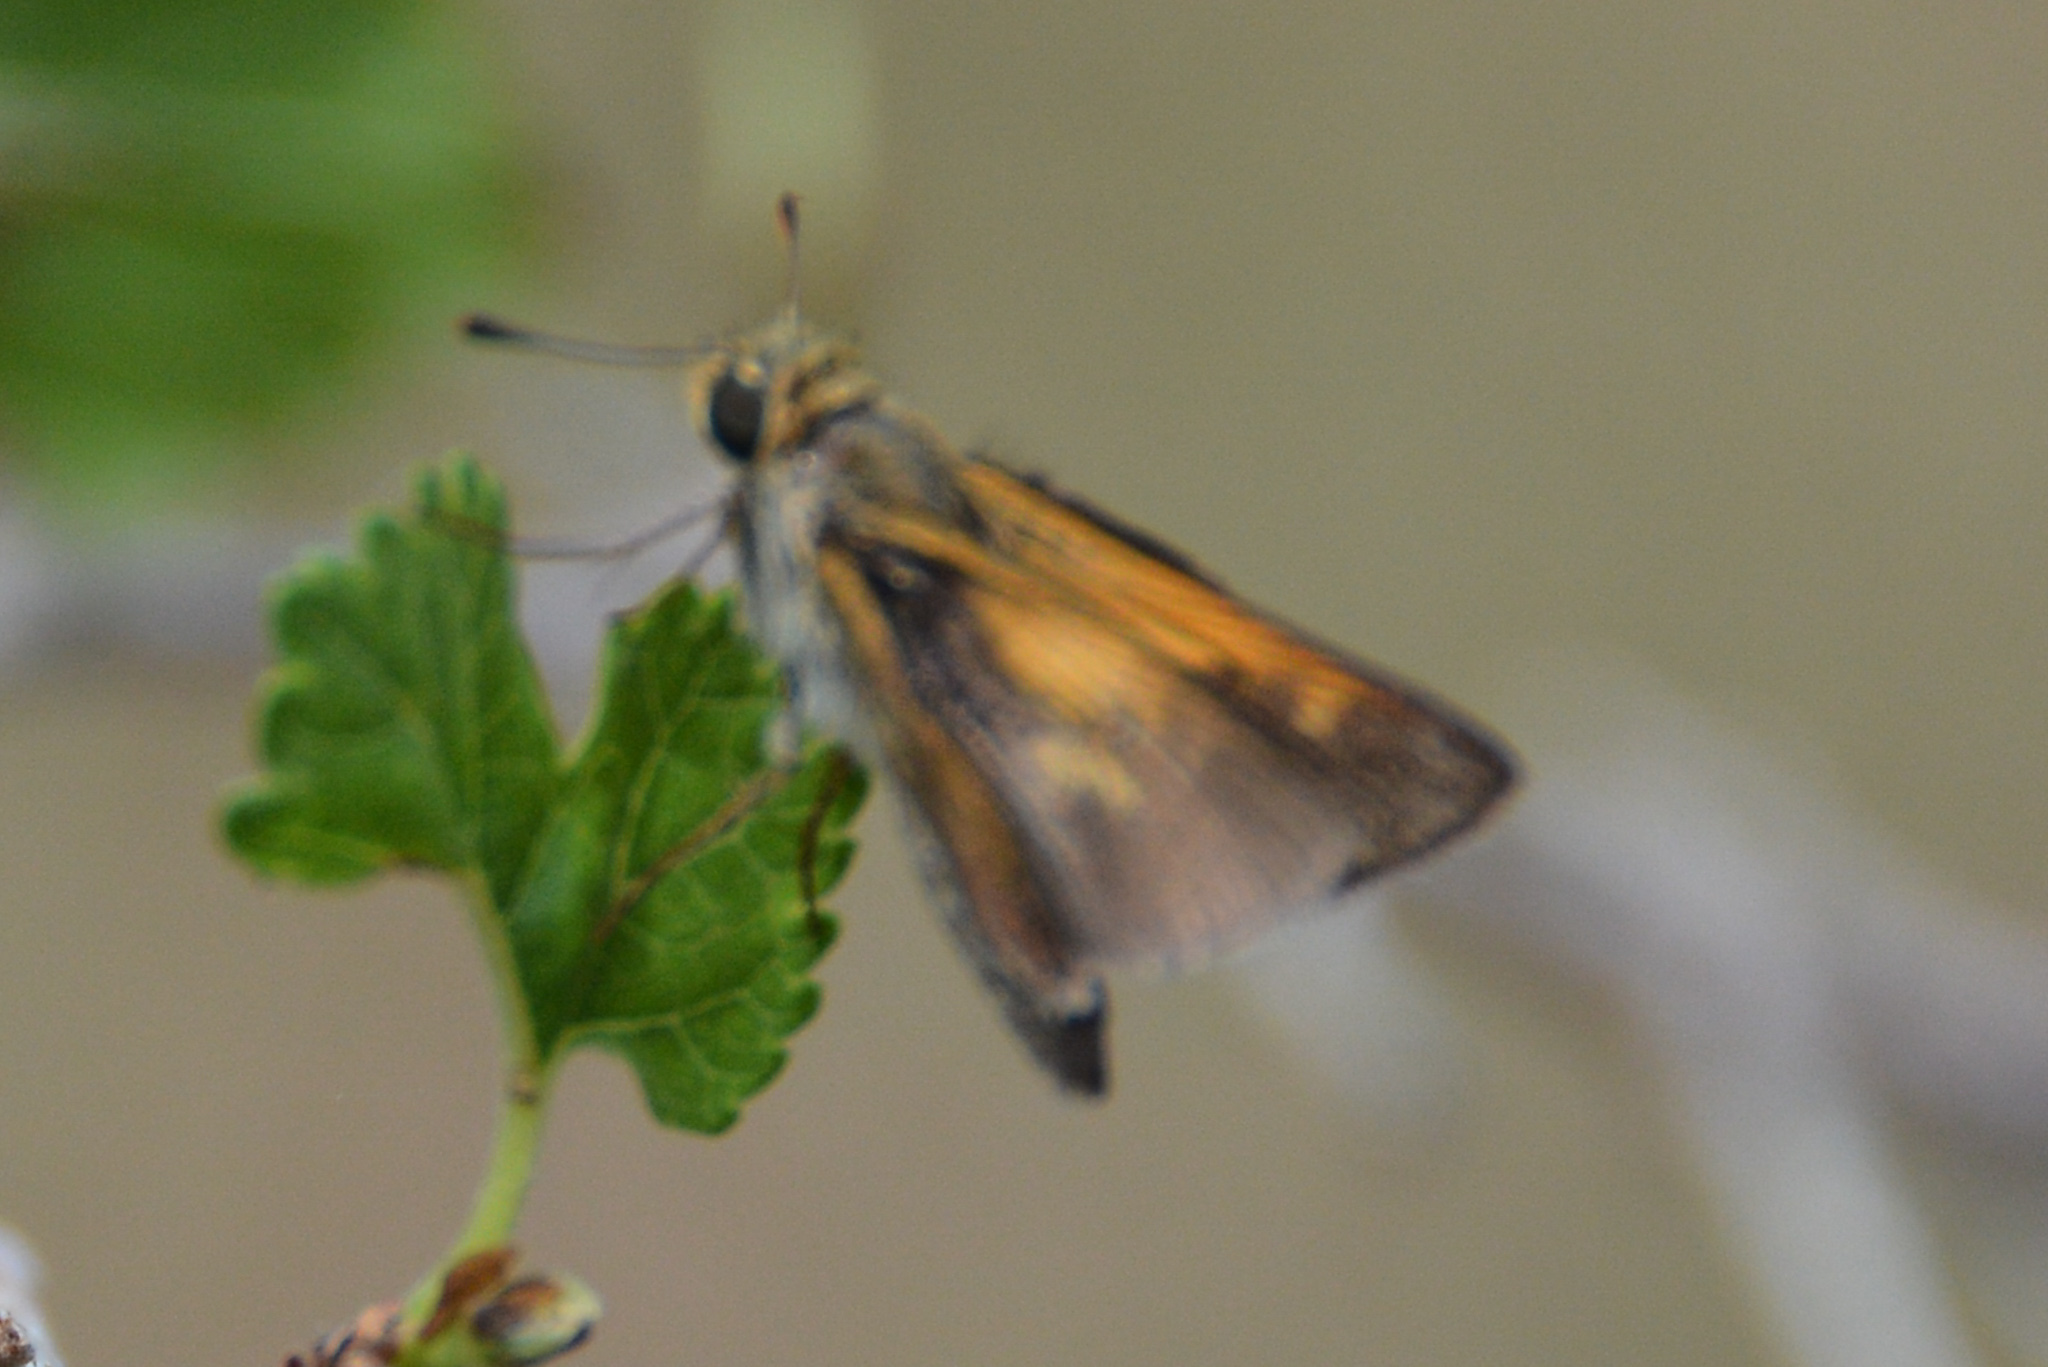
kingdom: Animalia
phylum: Arthropoda
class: Insecta
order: Lepidoptera
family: Hesperiidae
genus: Polites
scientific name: Polites themistocles
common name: Tawny-edged skipper
